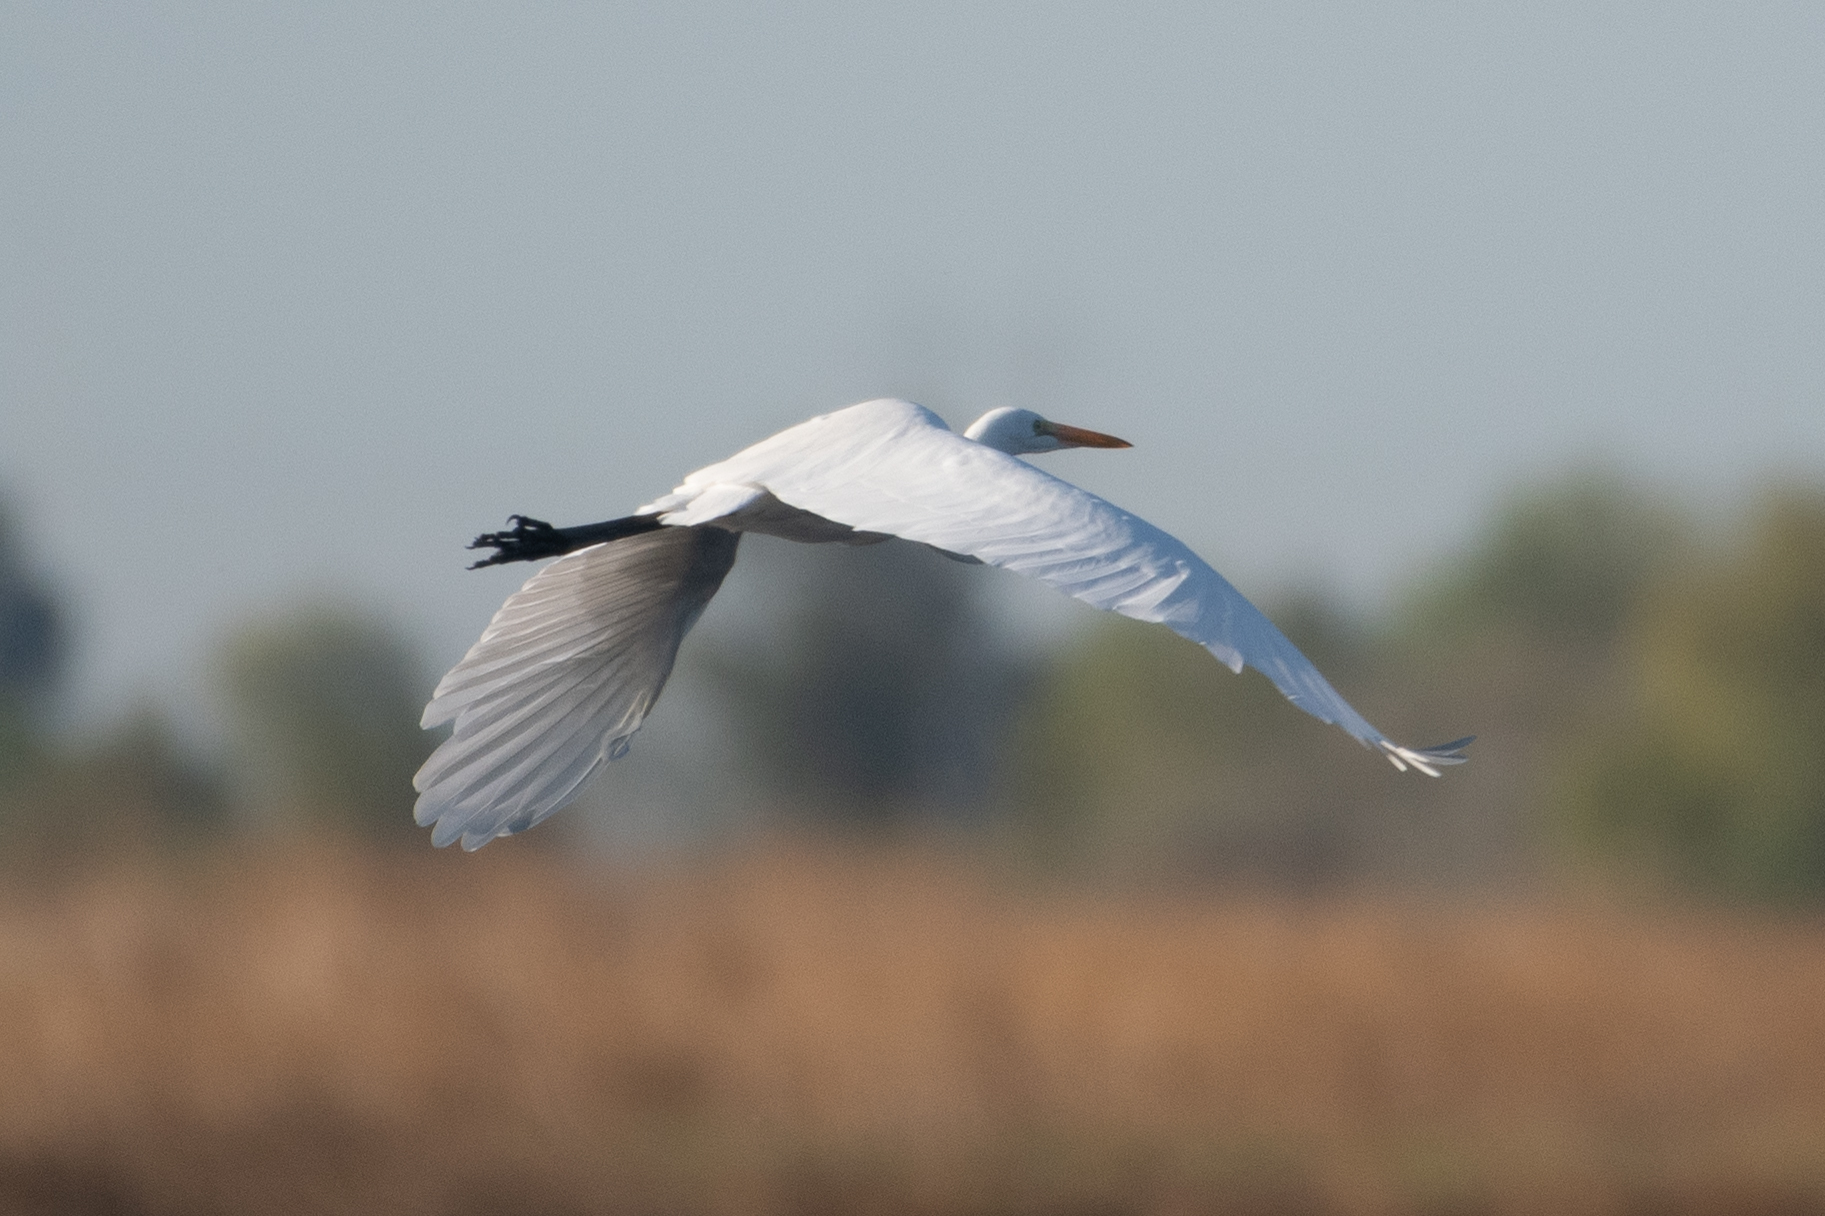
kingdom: Animalia
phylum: Chordata
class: Aves
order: Pelecaniformes
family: Ardeidae
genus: Ardea
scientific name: Ardea alba
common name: Great egret
